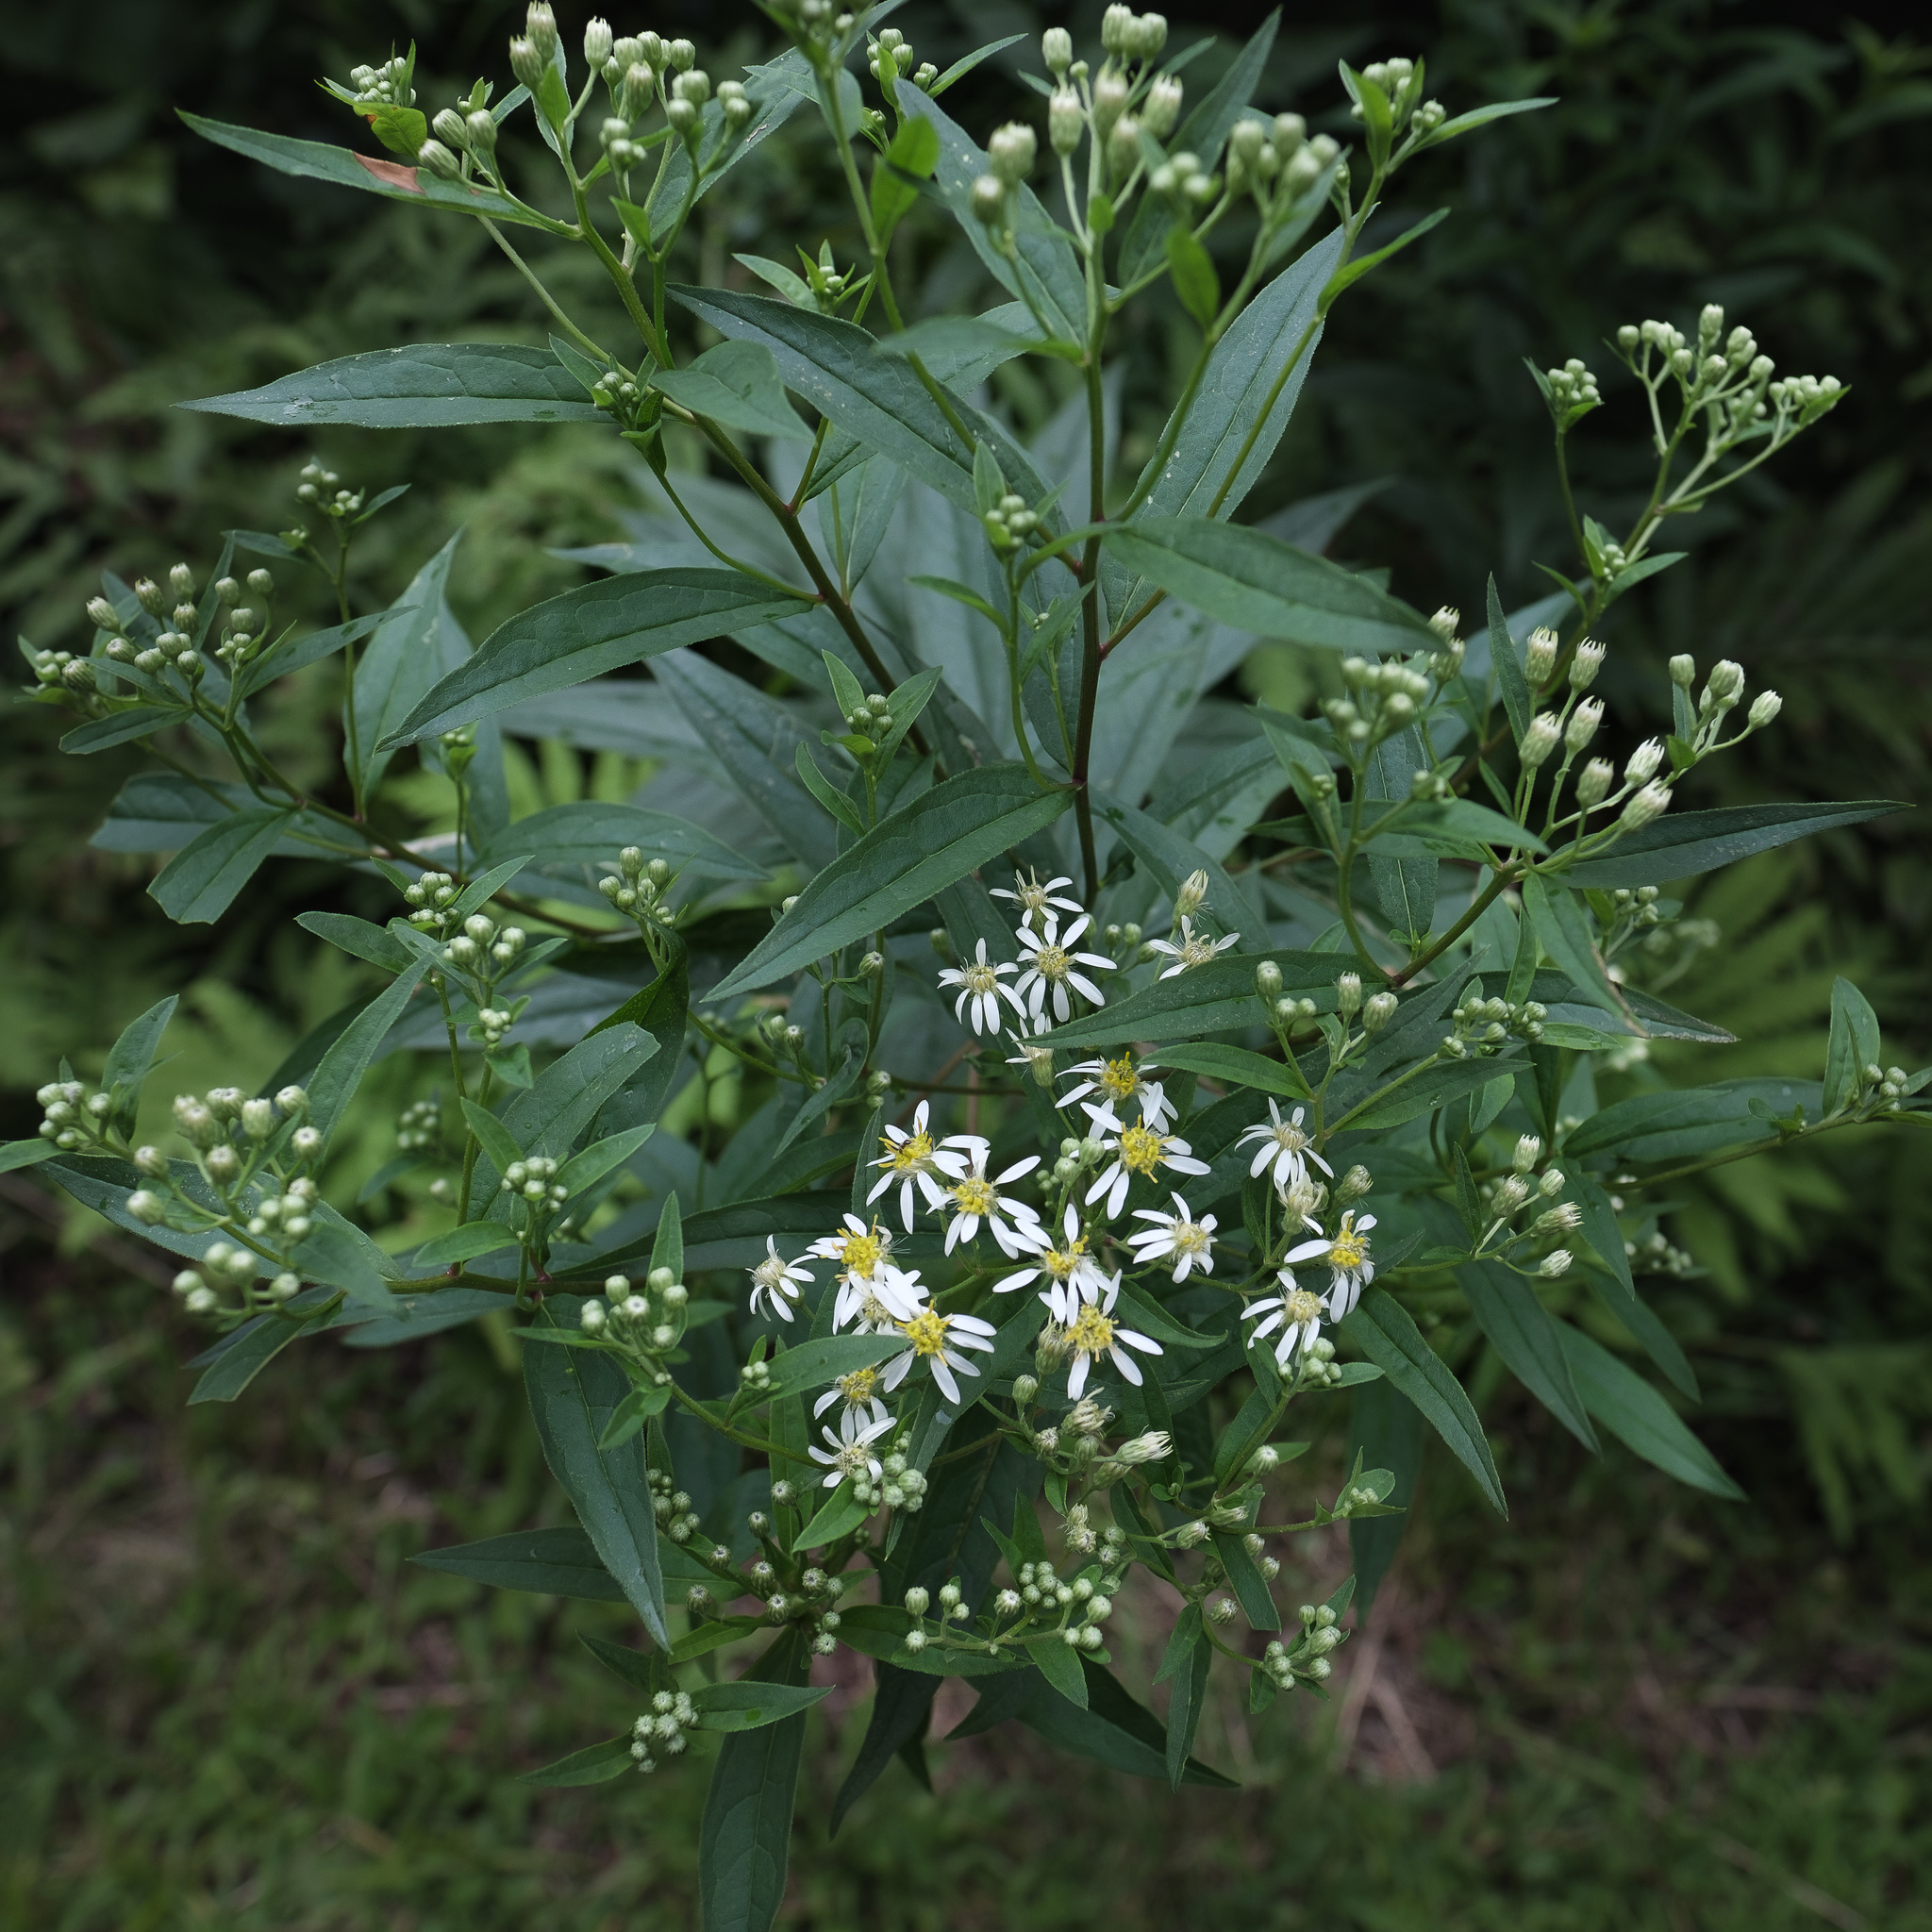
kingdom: Plantae
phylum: Tracheophyta
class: Magnoliopsida
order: Asterales
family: Asteraceae
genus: Doellingeria
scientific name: Doellingeria umbellata
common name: Flat-top white aster
